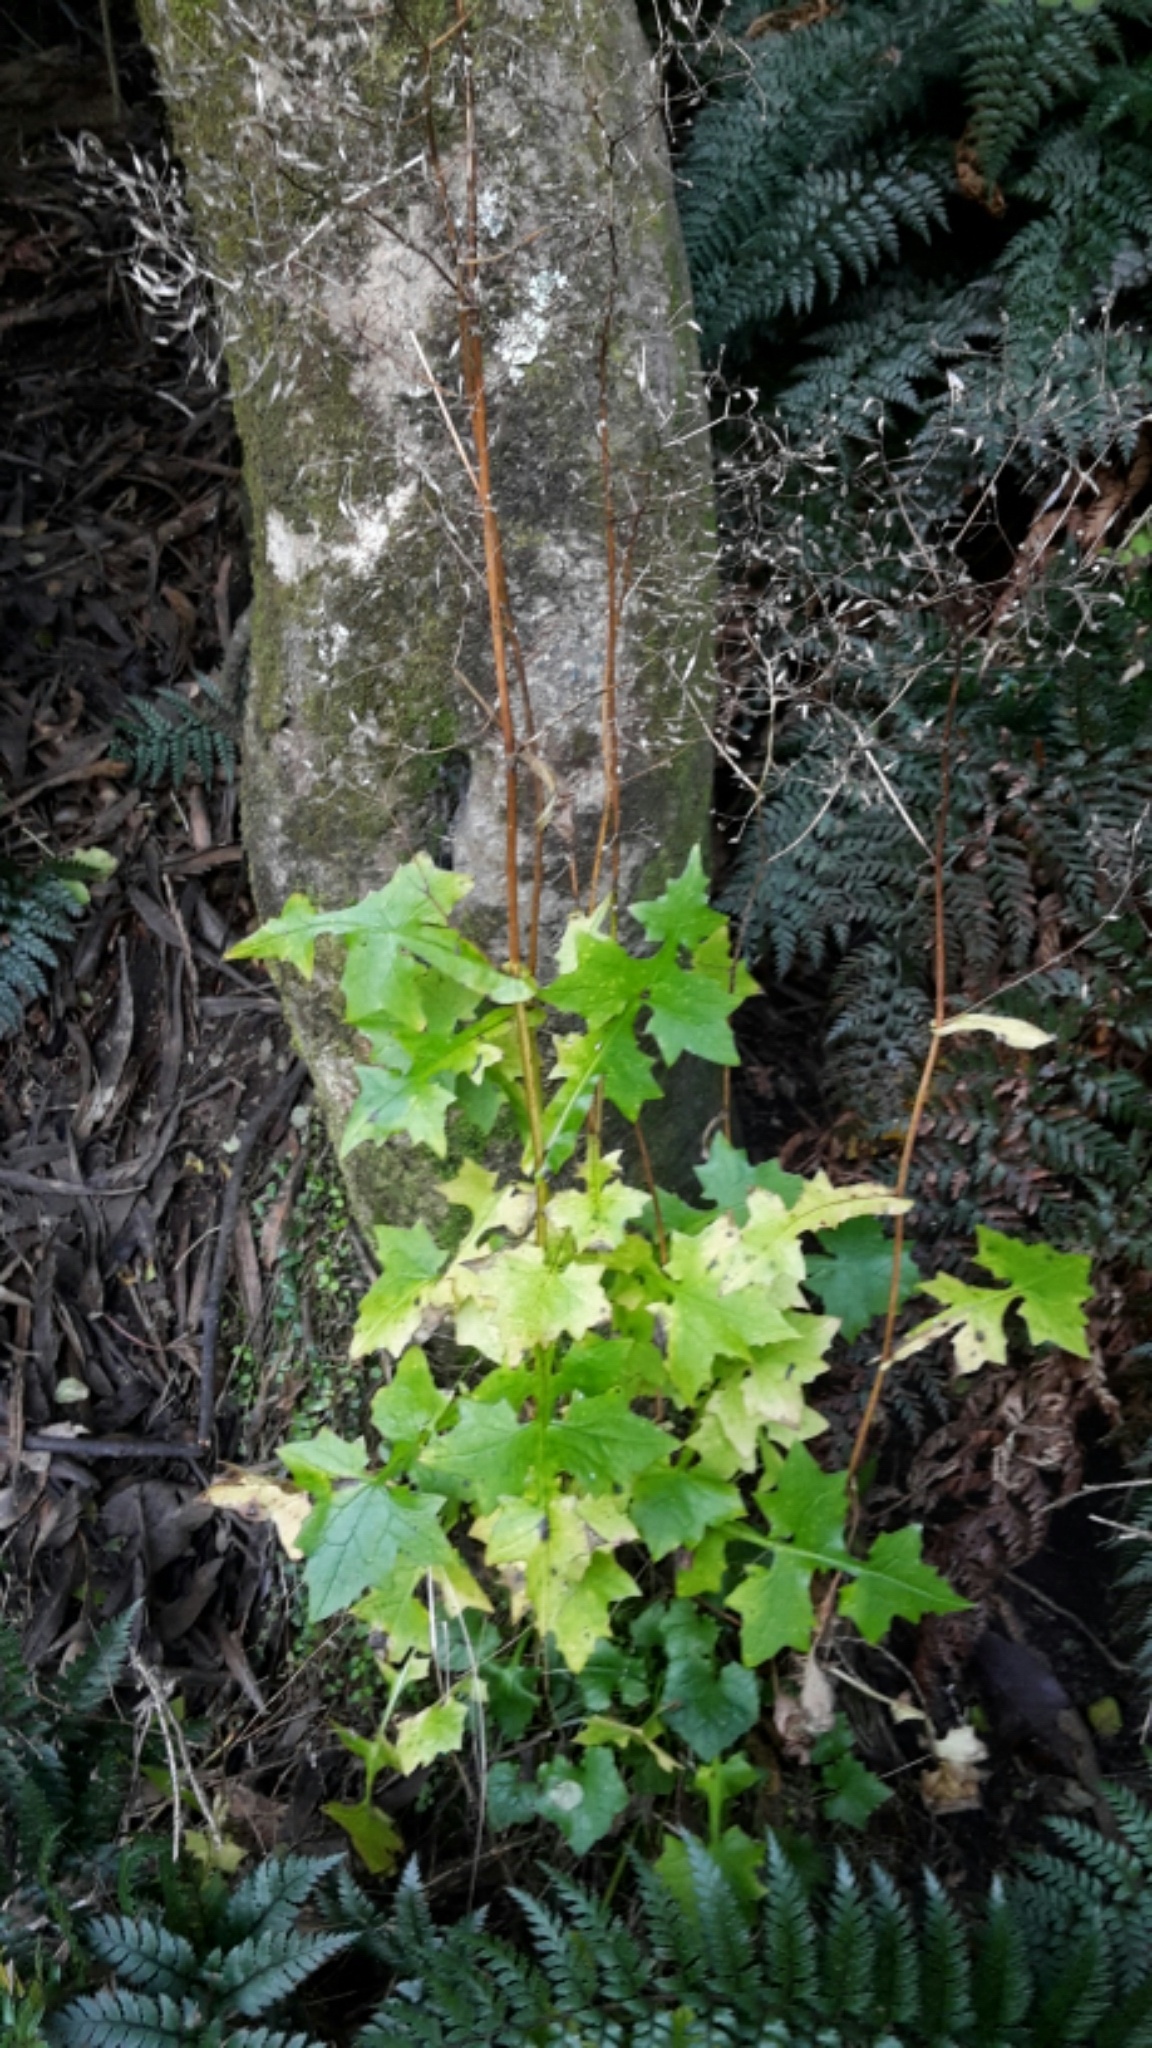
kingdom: Plantae
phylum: Tracheophyta
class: Magnoliopsida
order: Asterales
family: Asteraceae
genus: Mycelis
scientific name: Mycelis muralis
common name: Wall lettuce
